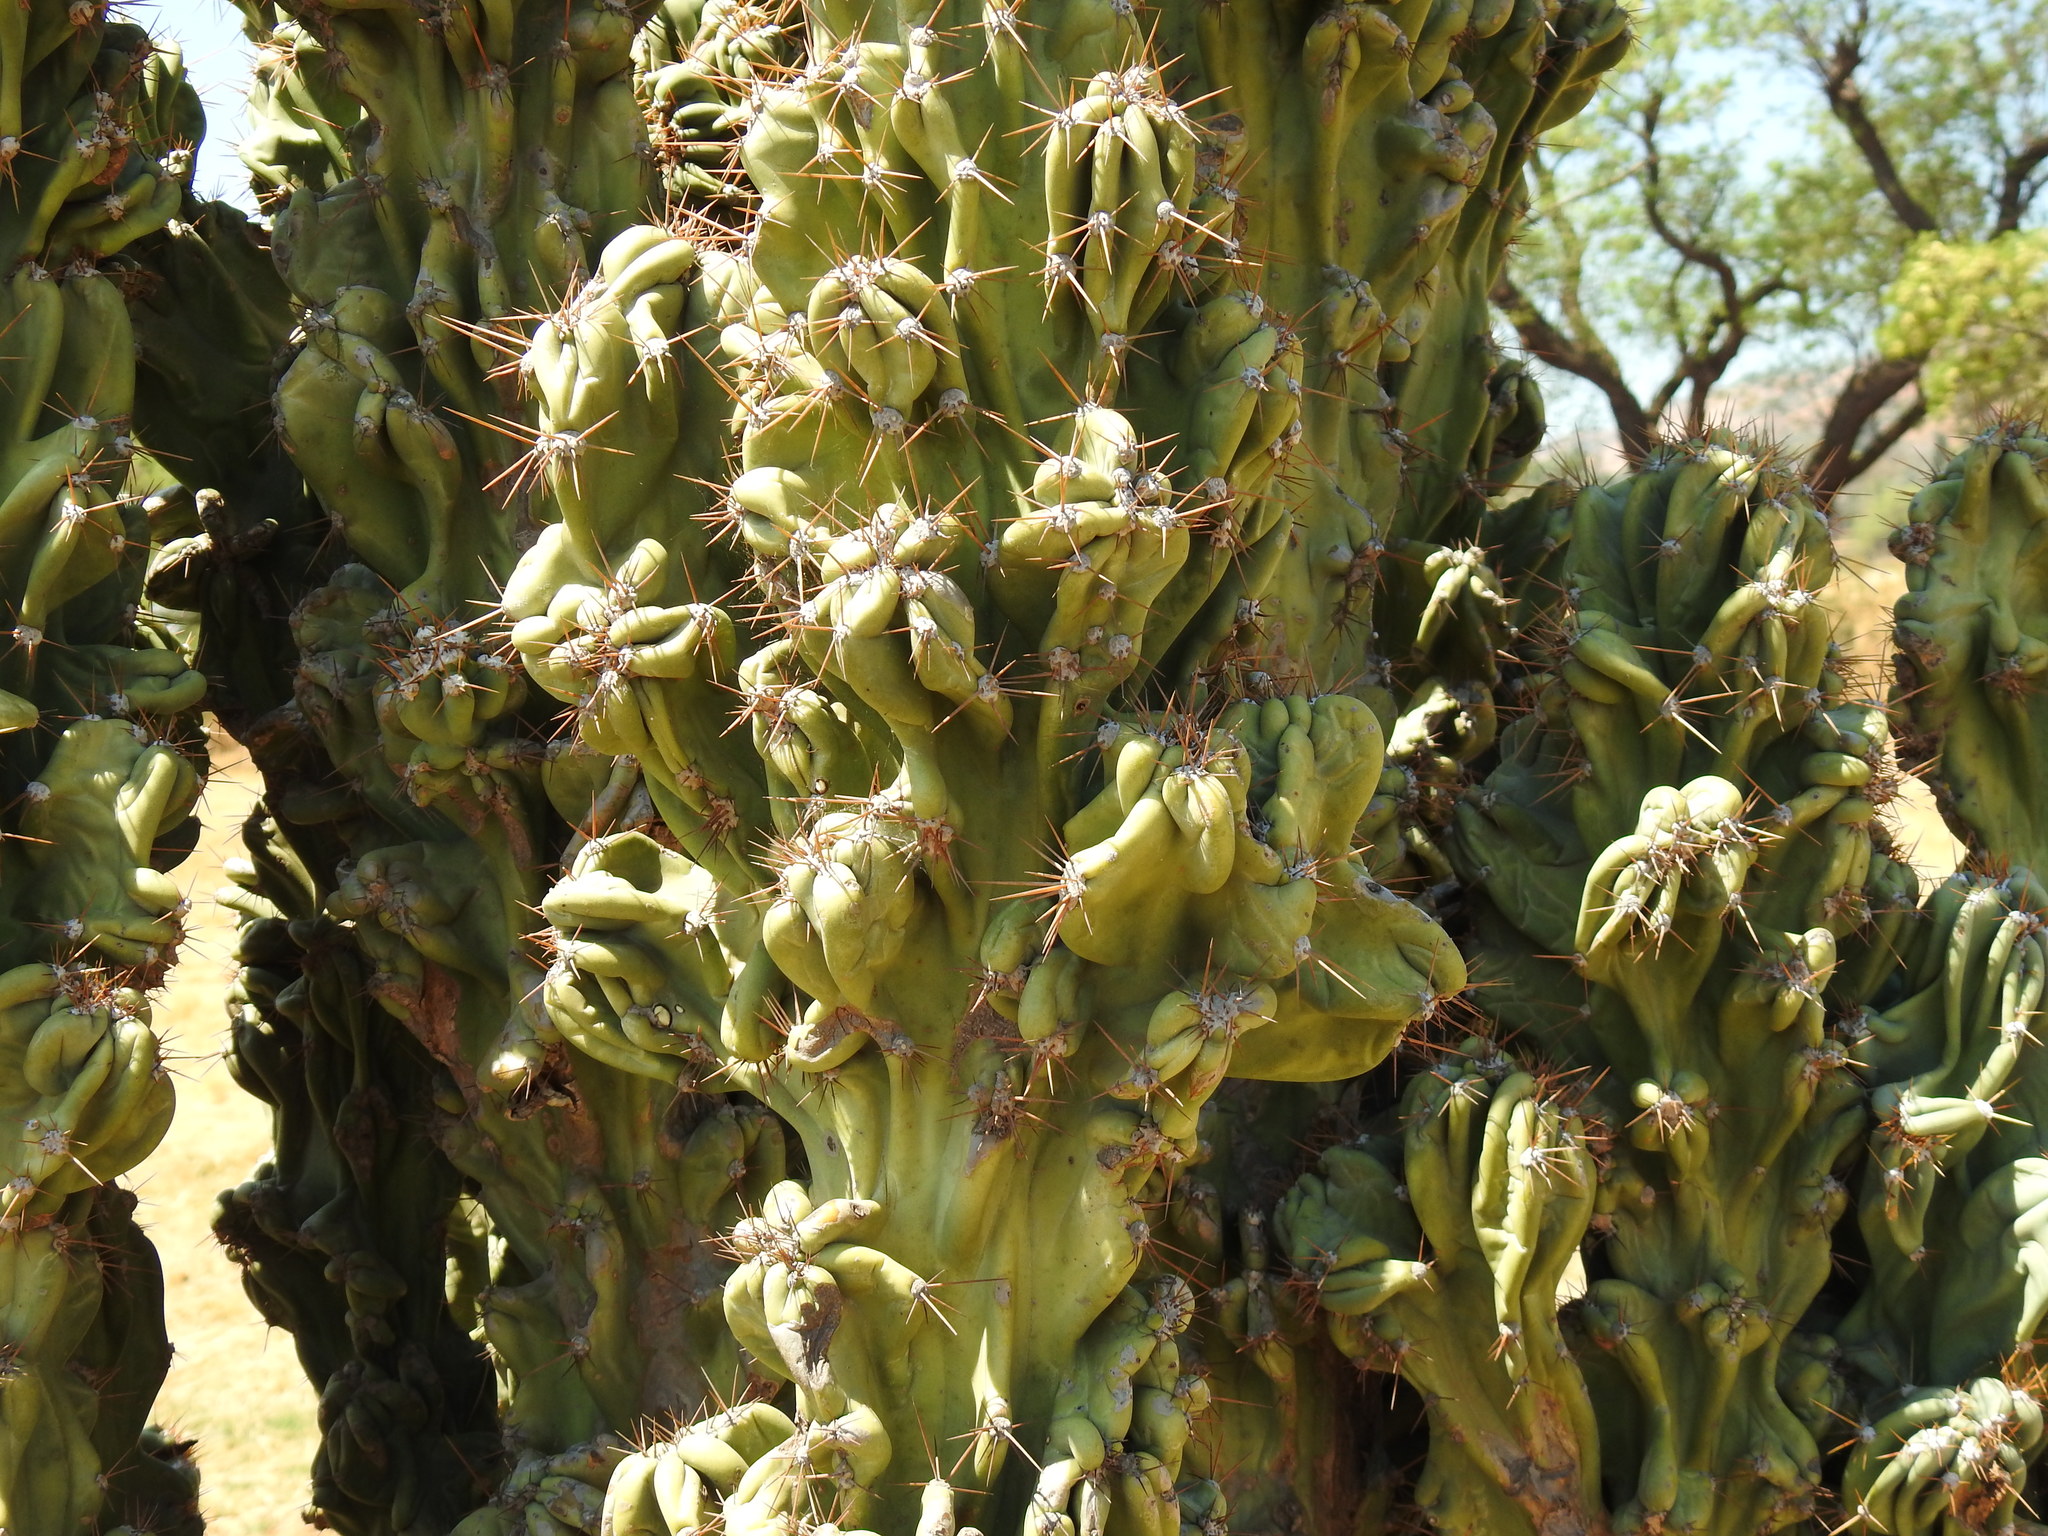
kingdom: Plantae
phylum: Tracheophyta
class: Magnoliopsida
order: Caryophyllales
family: Cactaceae
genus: Cereus
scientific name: Cereus hildmannianus
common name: Hedge cactus
